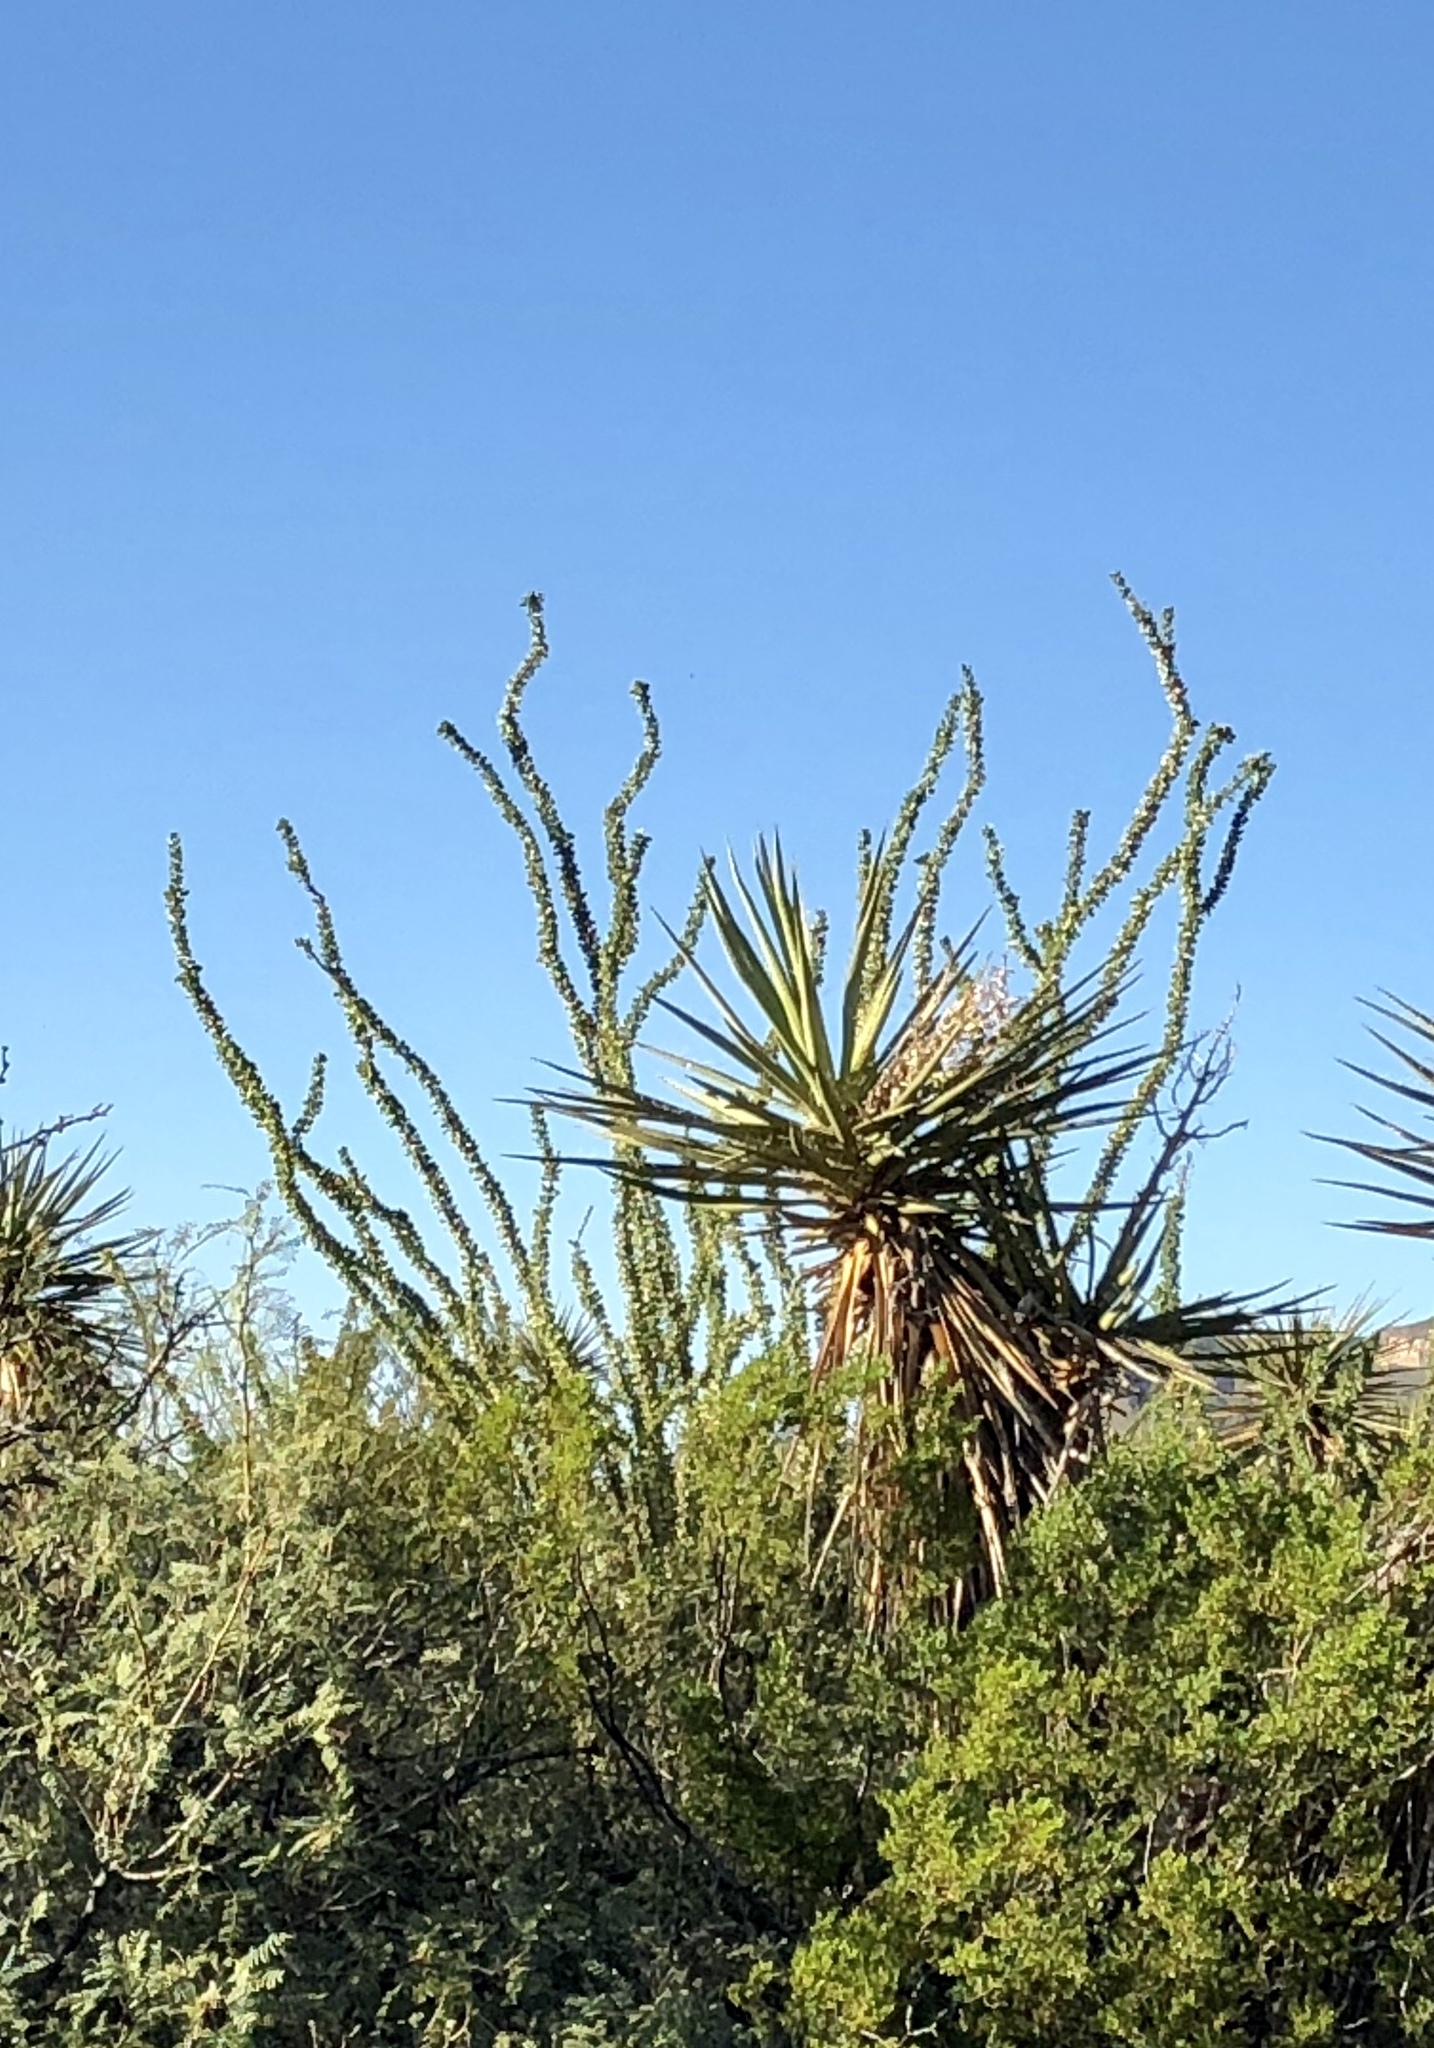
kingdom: Plantae
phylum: Tracheophyta
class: Magnoliopsida
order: Ericales
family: Fouquieriaceae
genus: Fouquieria
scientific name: Fouquieria splendens
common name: Vine-cactus
